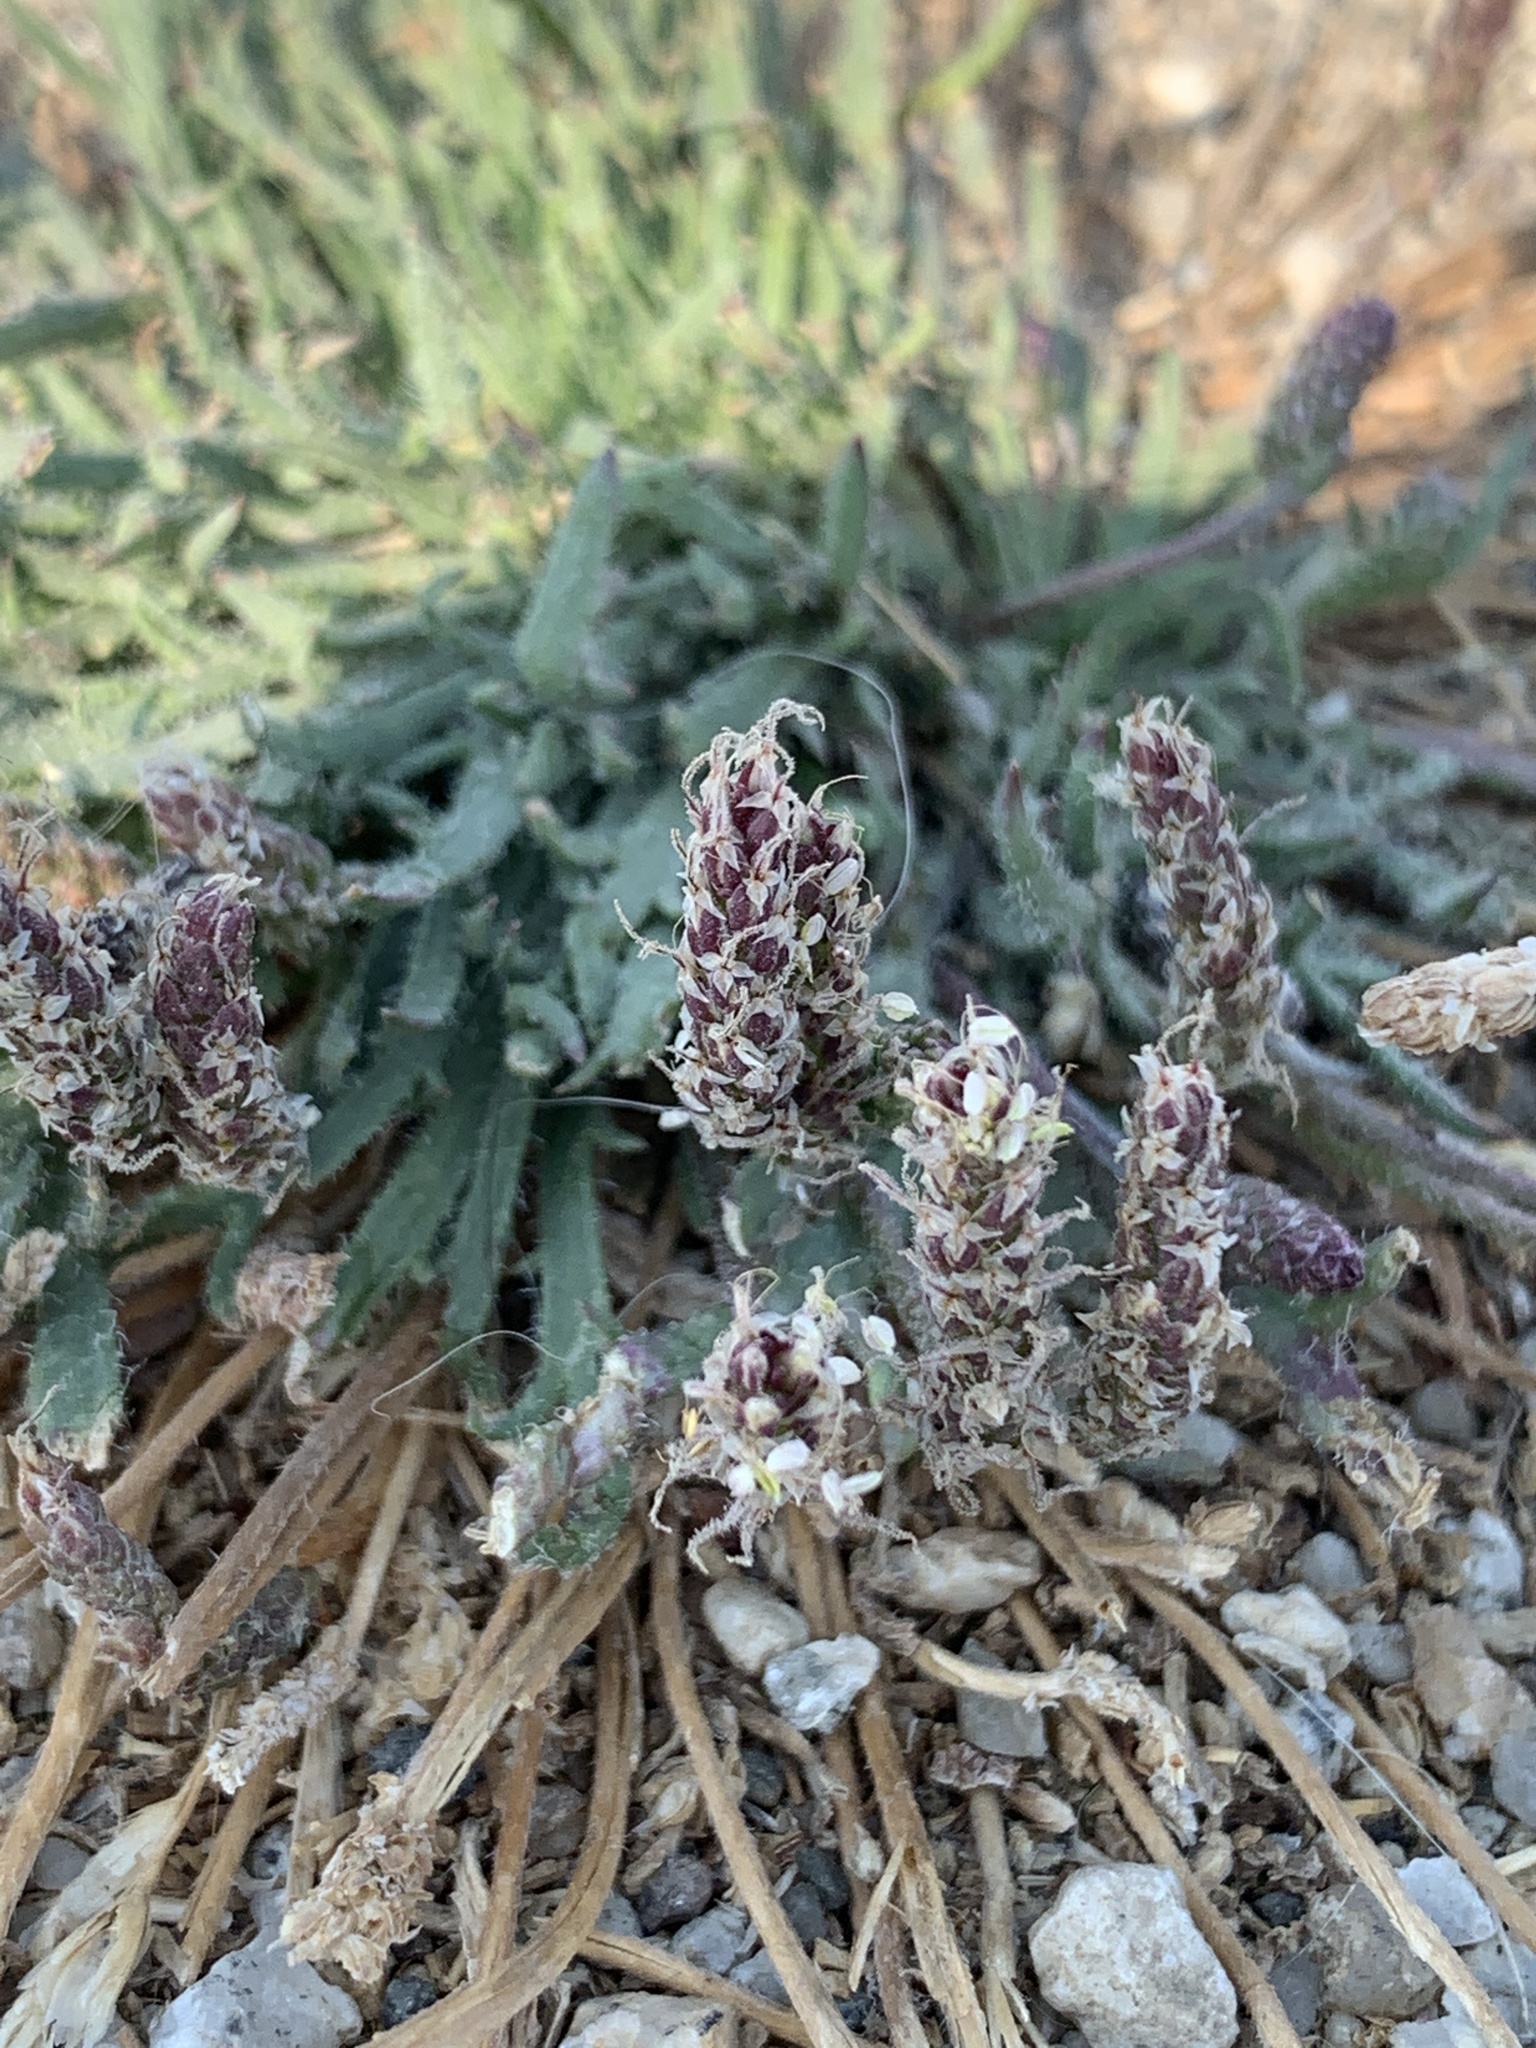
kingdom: Plantae
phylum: Tracheophyta
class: Magnoliopsida
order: Lamiales
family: Plantaginaceae
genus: Plantago
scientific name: Plantago coronopus
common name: Buck's-horn plantain
